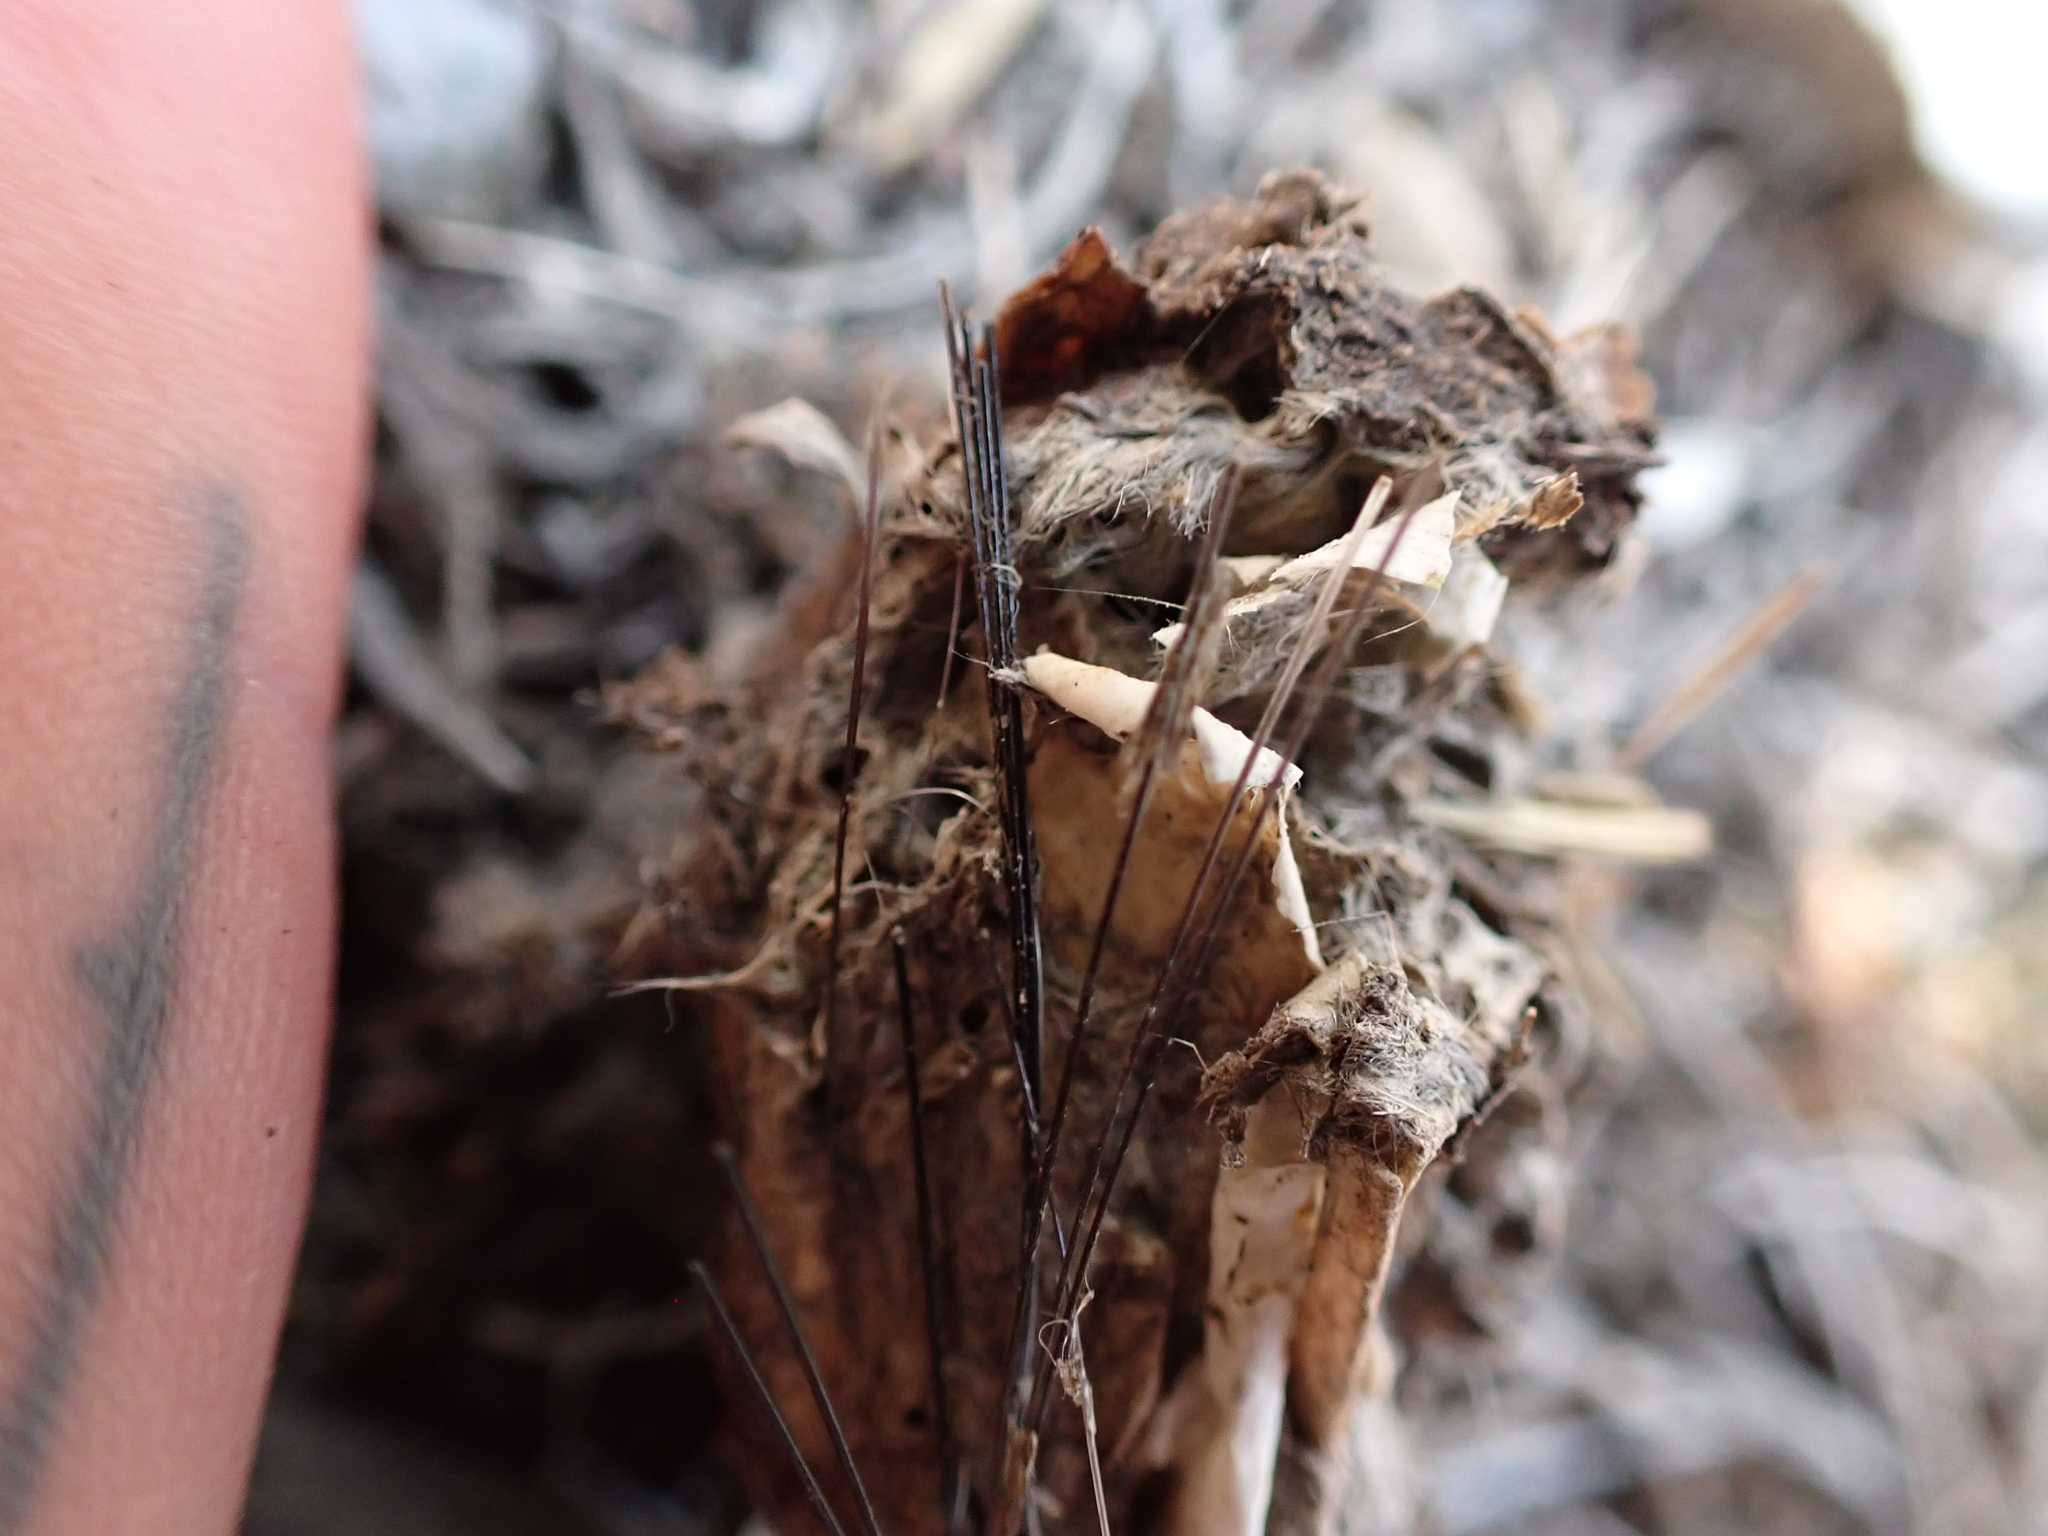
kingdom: Animalia
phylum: Chordata
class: Mammalia
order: Rodentia
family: Geomyidae
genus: Thomomys
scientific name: Thomomys talpoides
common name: Northern pocket gopher
